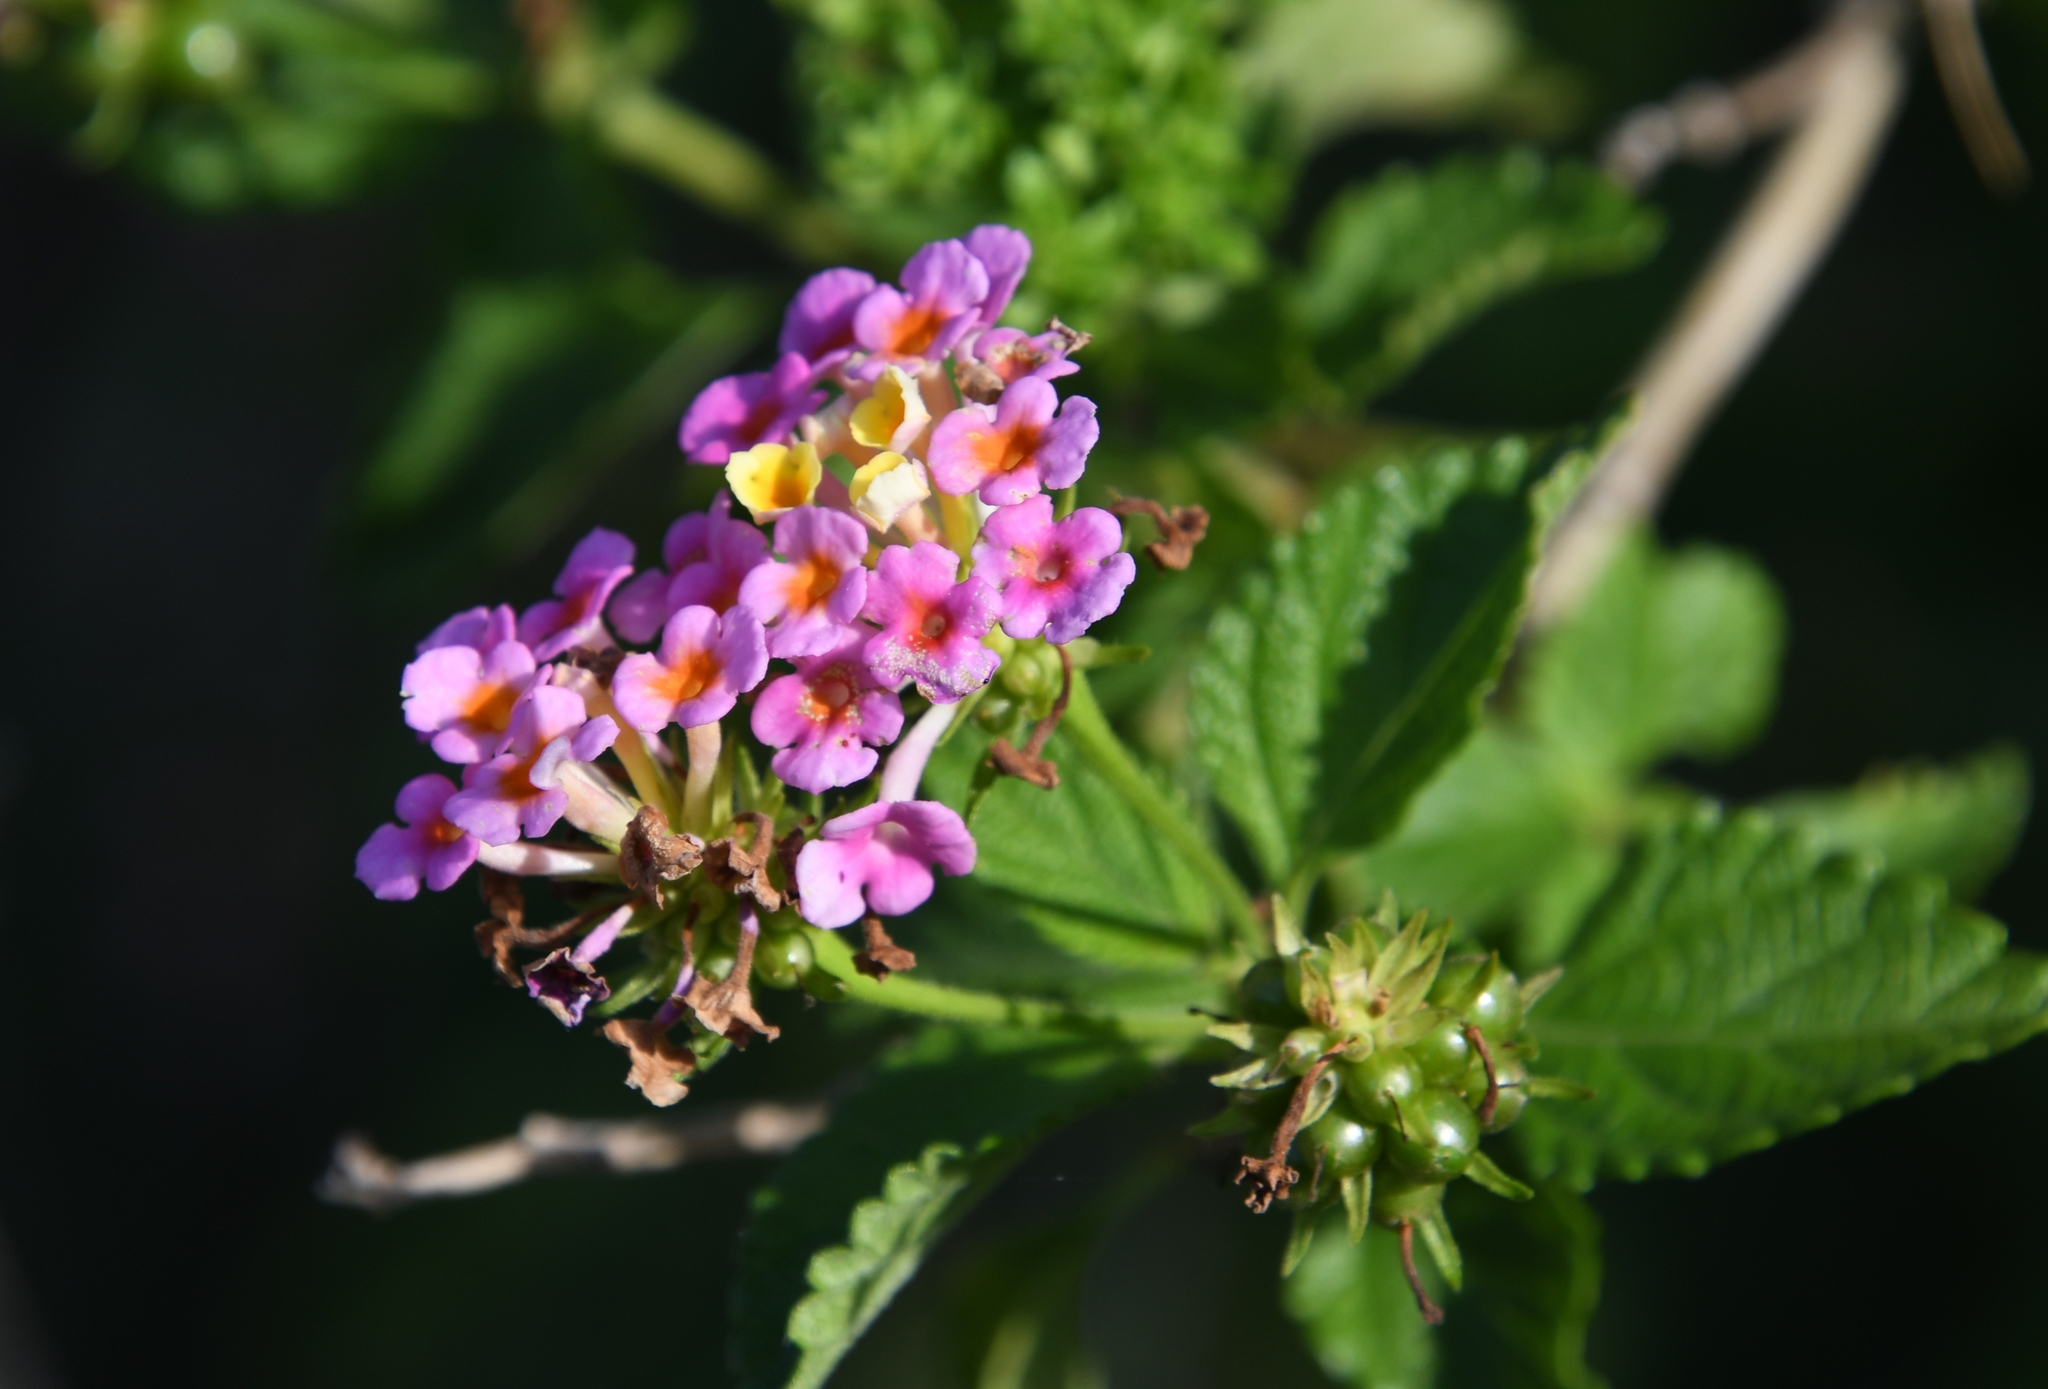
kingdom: Plantae
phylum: Tracheophyta
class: Magnoliopsida
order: Lamiales
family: Verbenaceae
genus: Lantana
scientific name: Lantana strigocamara
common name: Lantana
